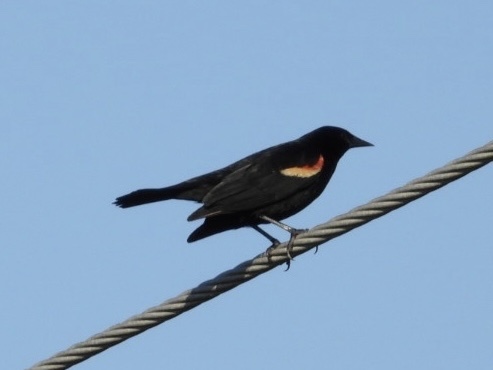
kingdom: Animalia
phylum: Chordata
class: Aves
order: Passeriformes
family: Icteridae
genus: Agelaius
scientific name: Agelaius phoeniceus
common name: Red-winged blackbird
